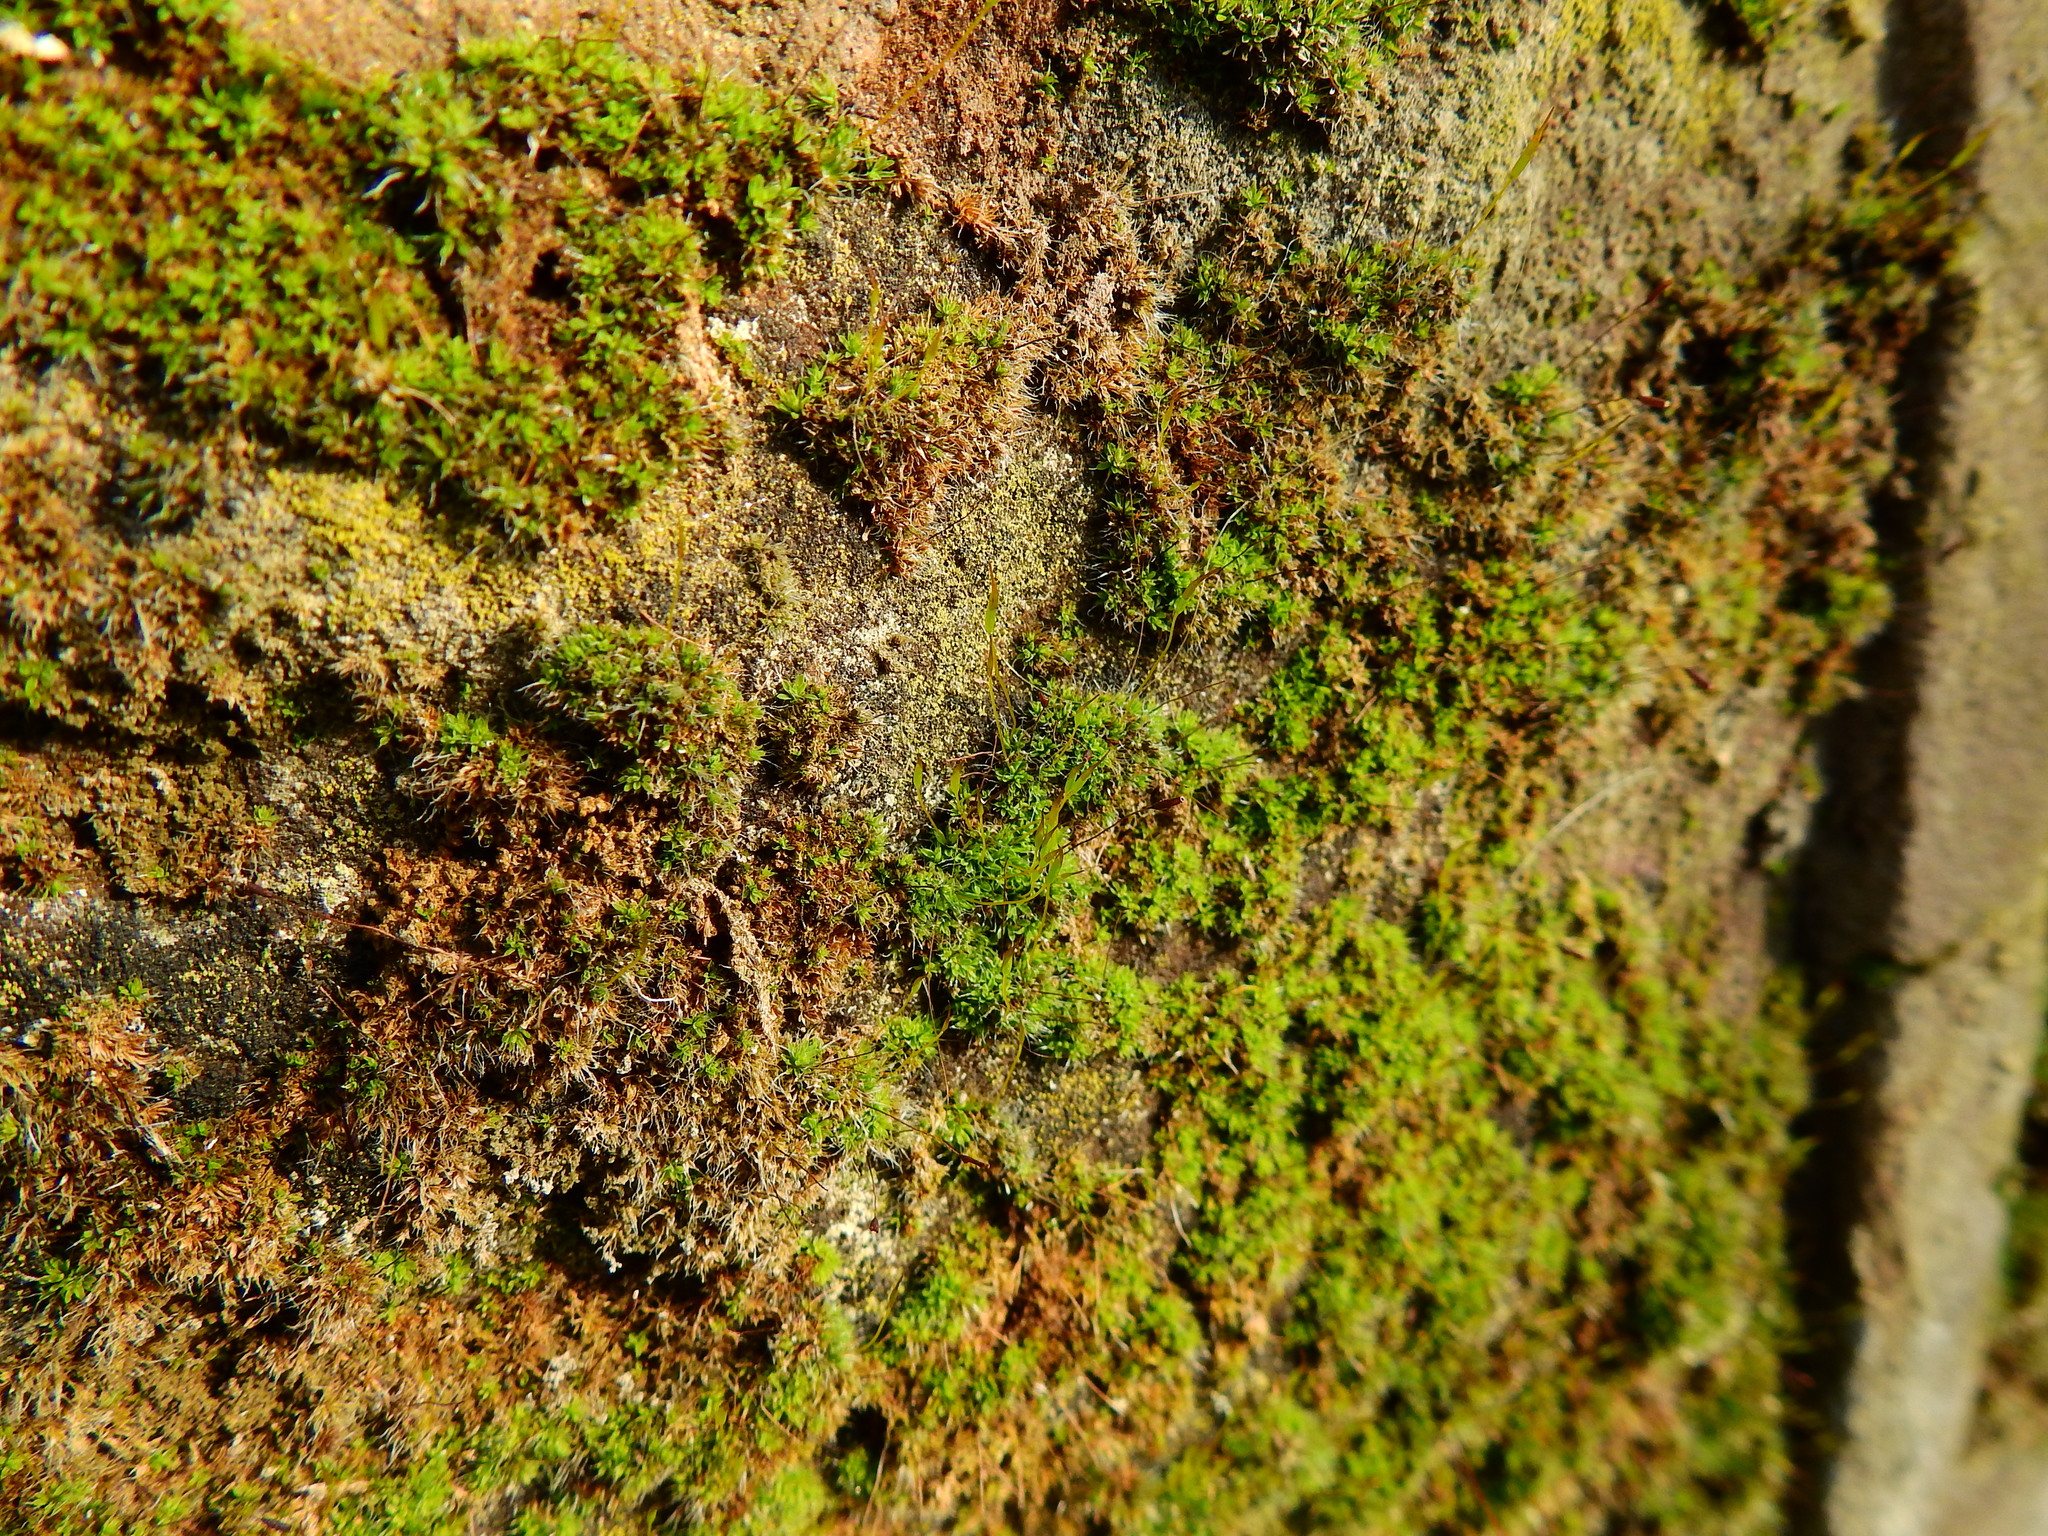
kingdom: Plantae
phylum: Bryophyta
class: Bryopsida
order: Pottiales
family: Pottiaceae
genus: Tortula
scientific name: Tortula muralis
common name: Wall screw-moss
